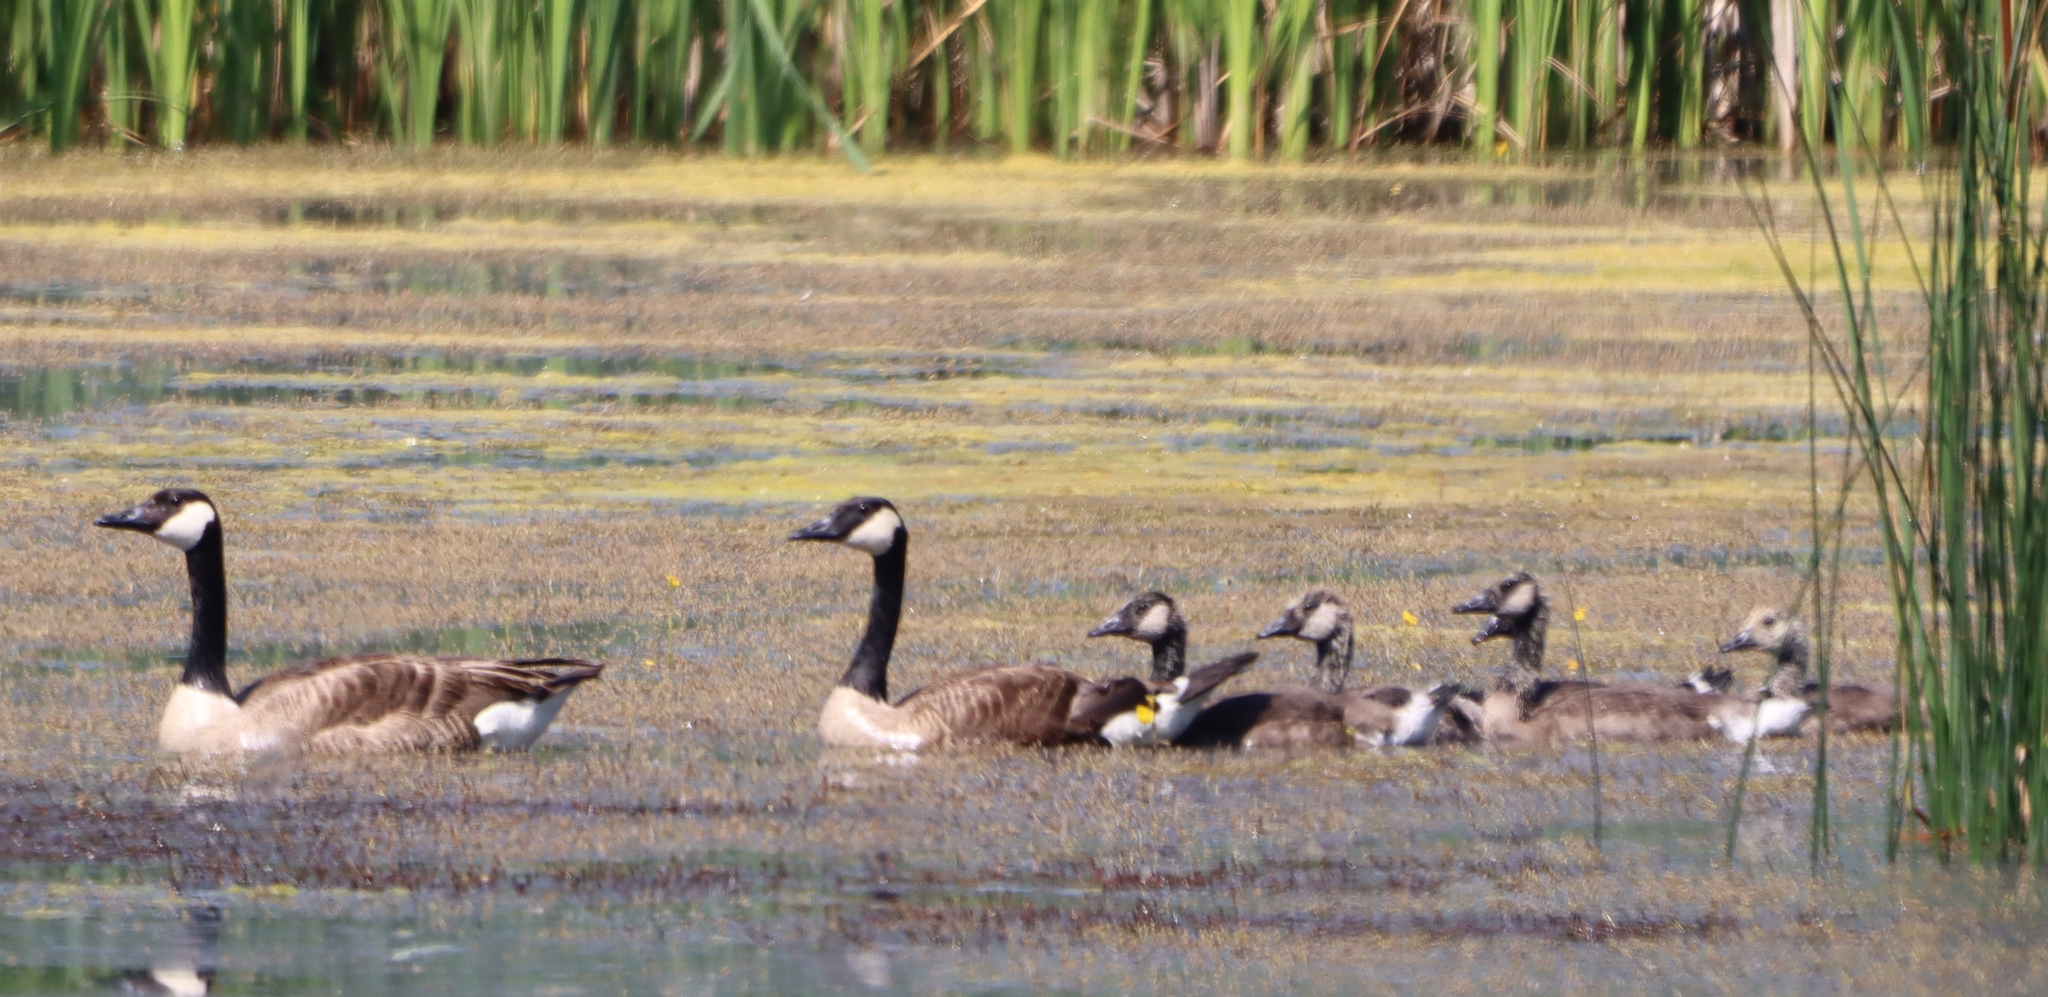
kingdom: Animalia
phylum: Chordata
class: Aves
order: Anseriformes
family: Anatidae
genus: Branta
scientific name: Branta canadensis
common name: Canada goose
